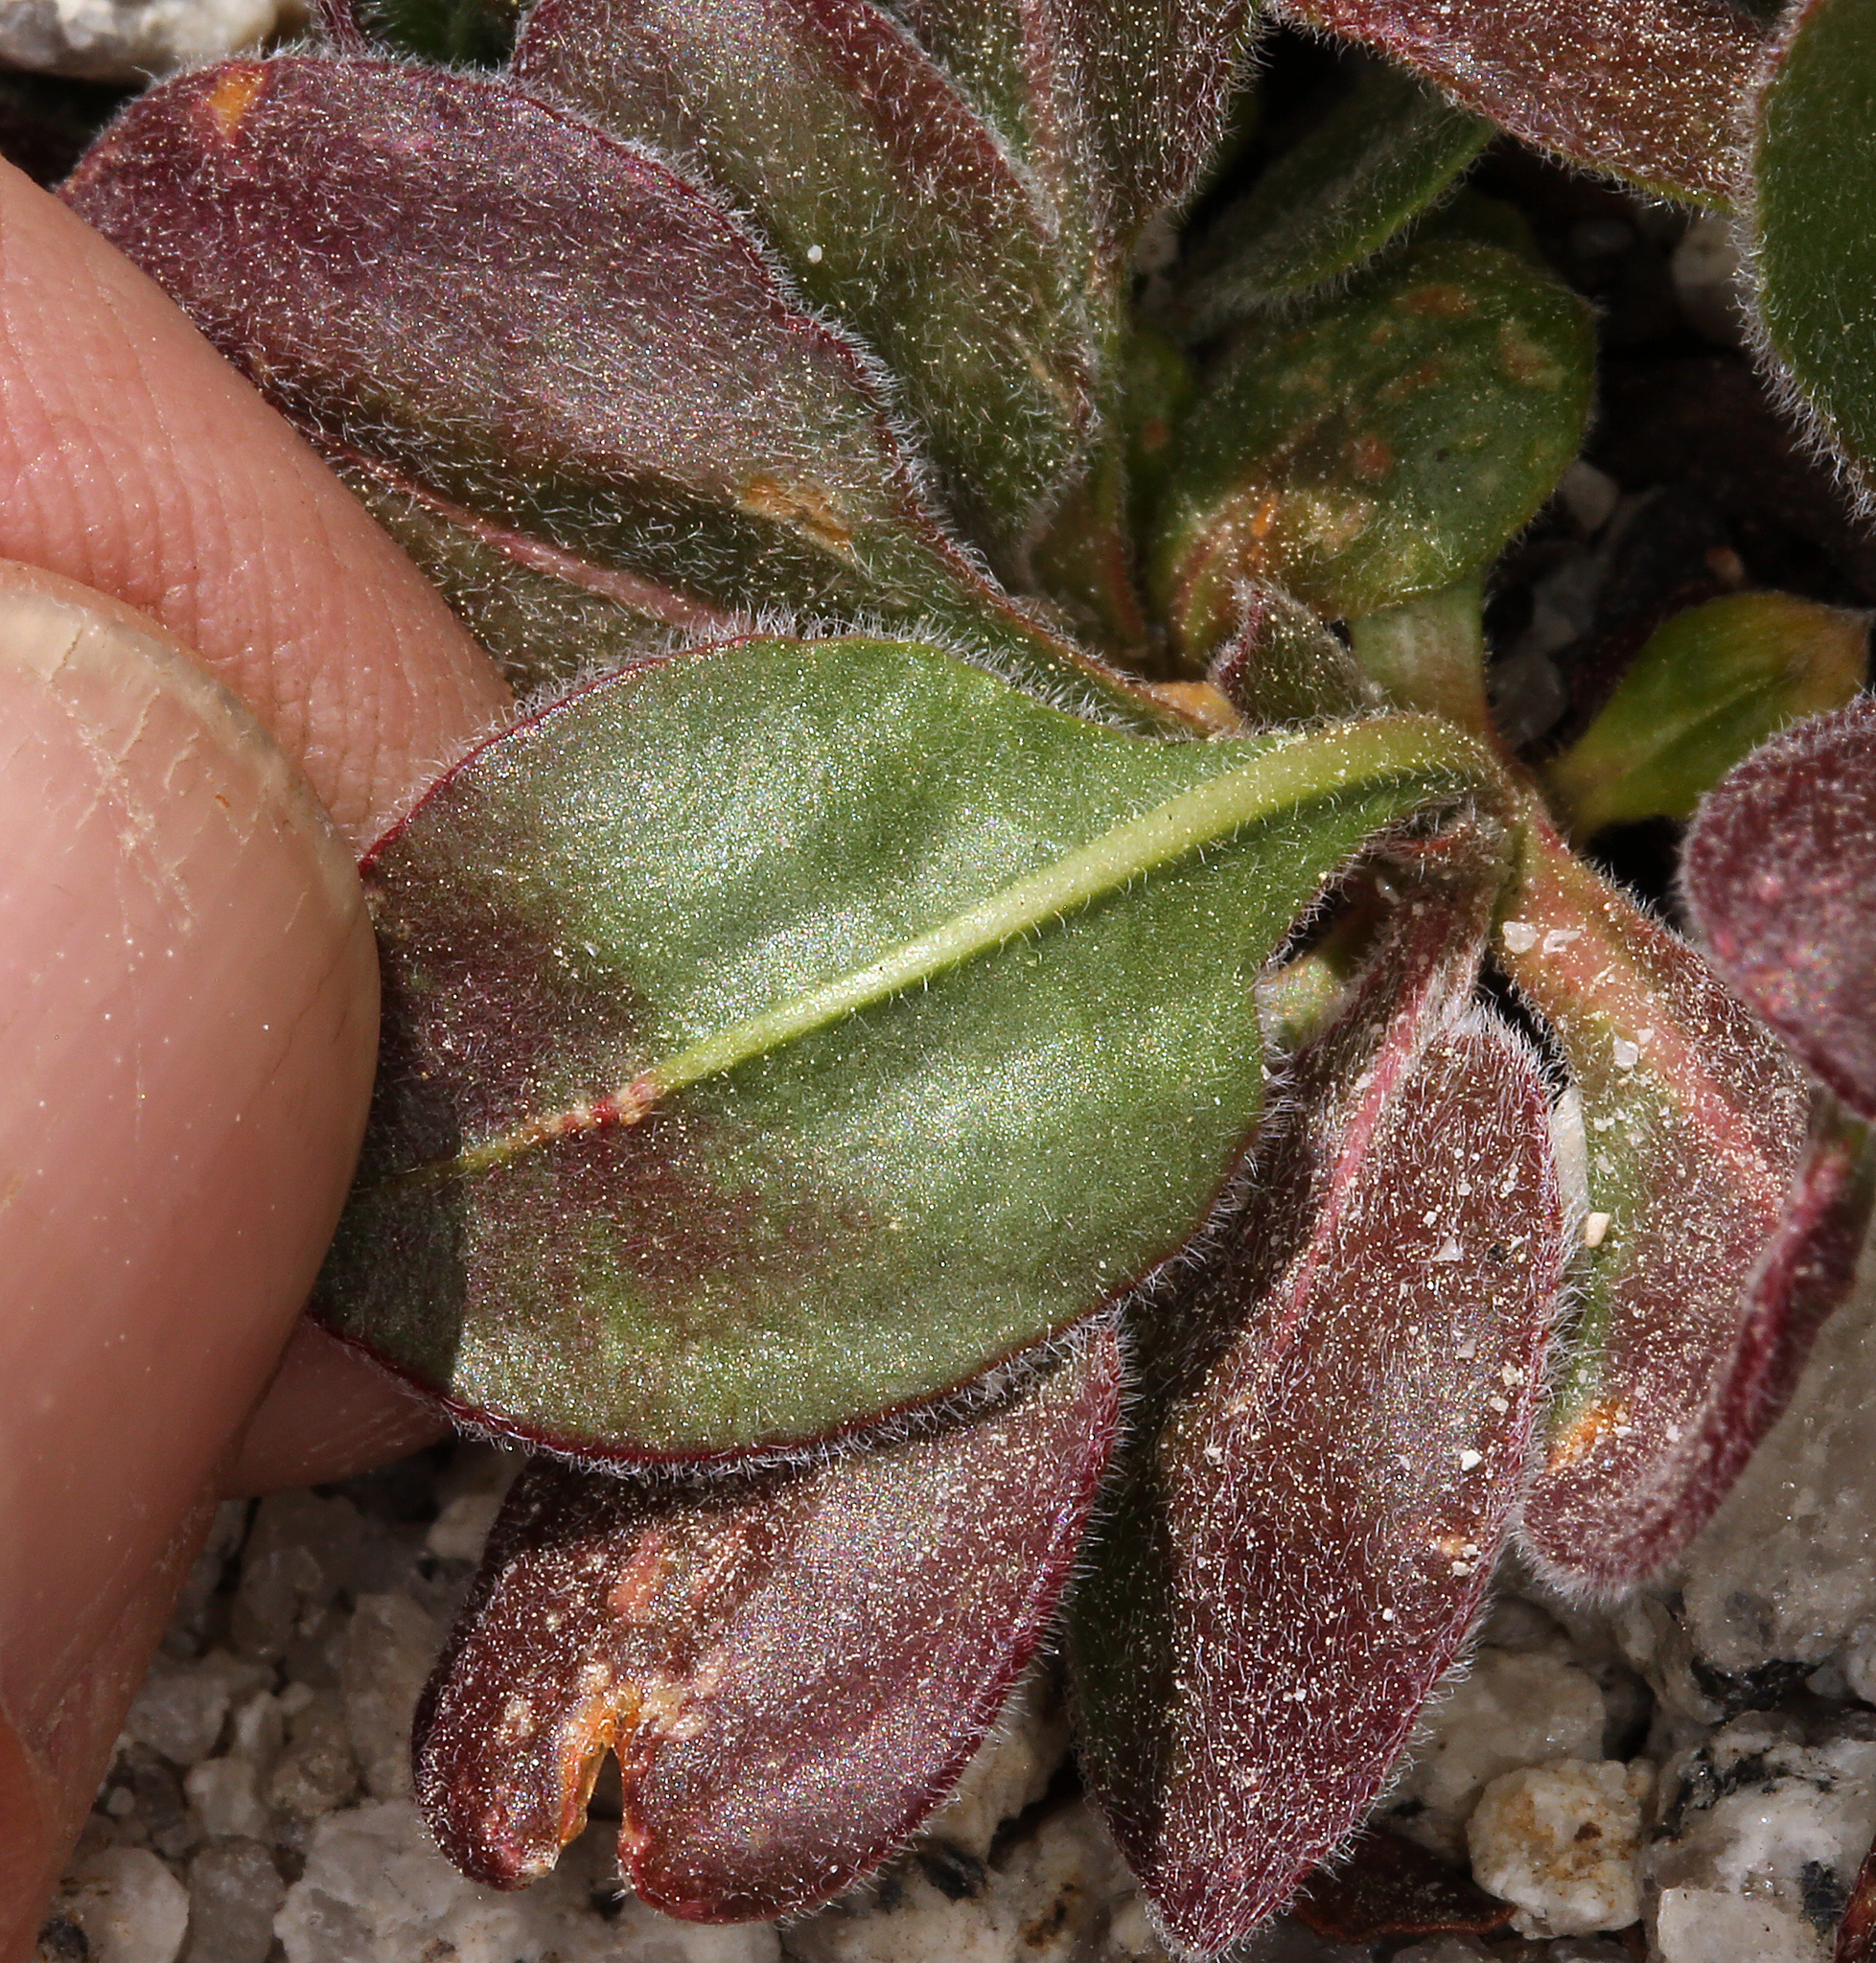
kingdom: Plantae
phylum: Tracheophyta
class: Magnoliopsida
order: Caryophyllales
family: Polygonaceae
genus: Eriogonum
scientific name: Eriogonum latens
